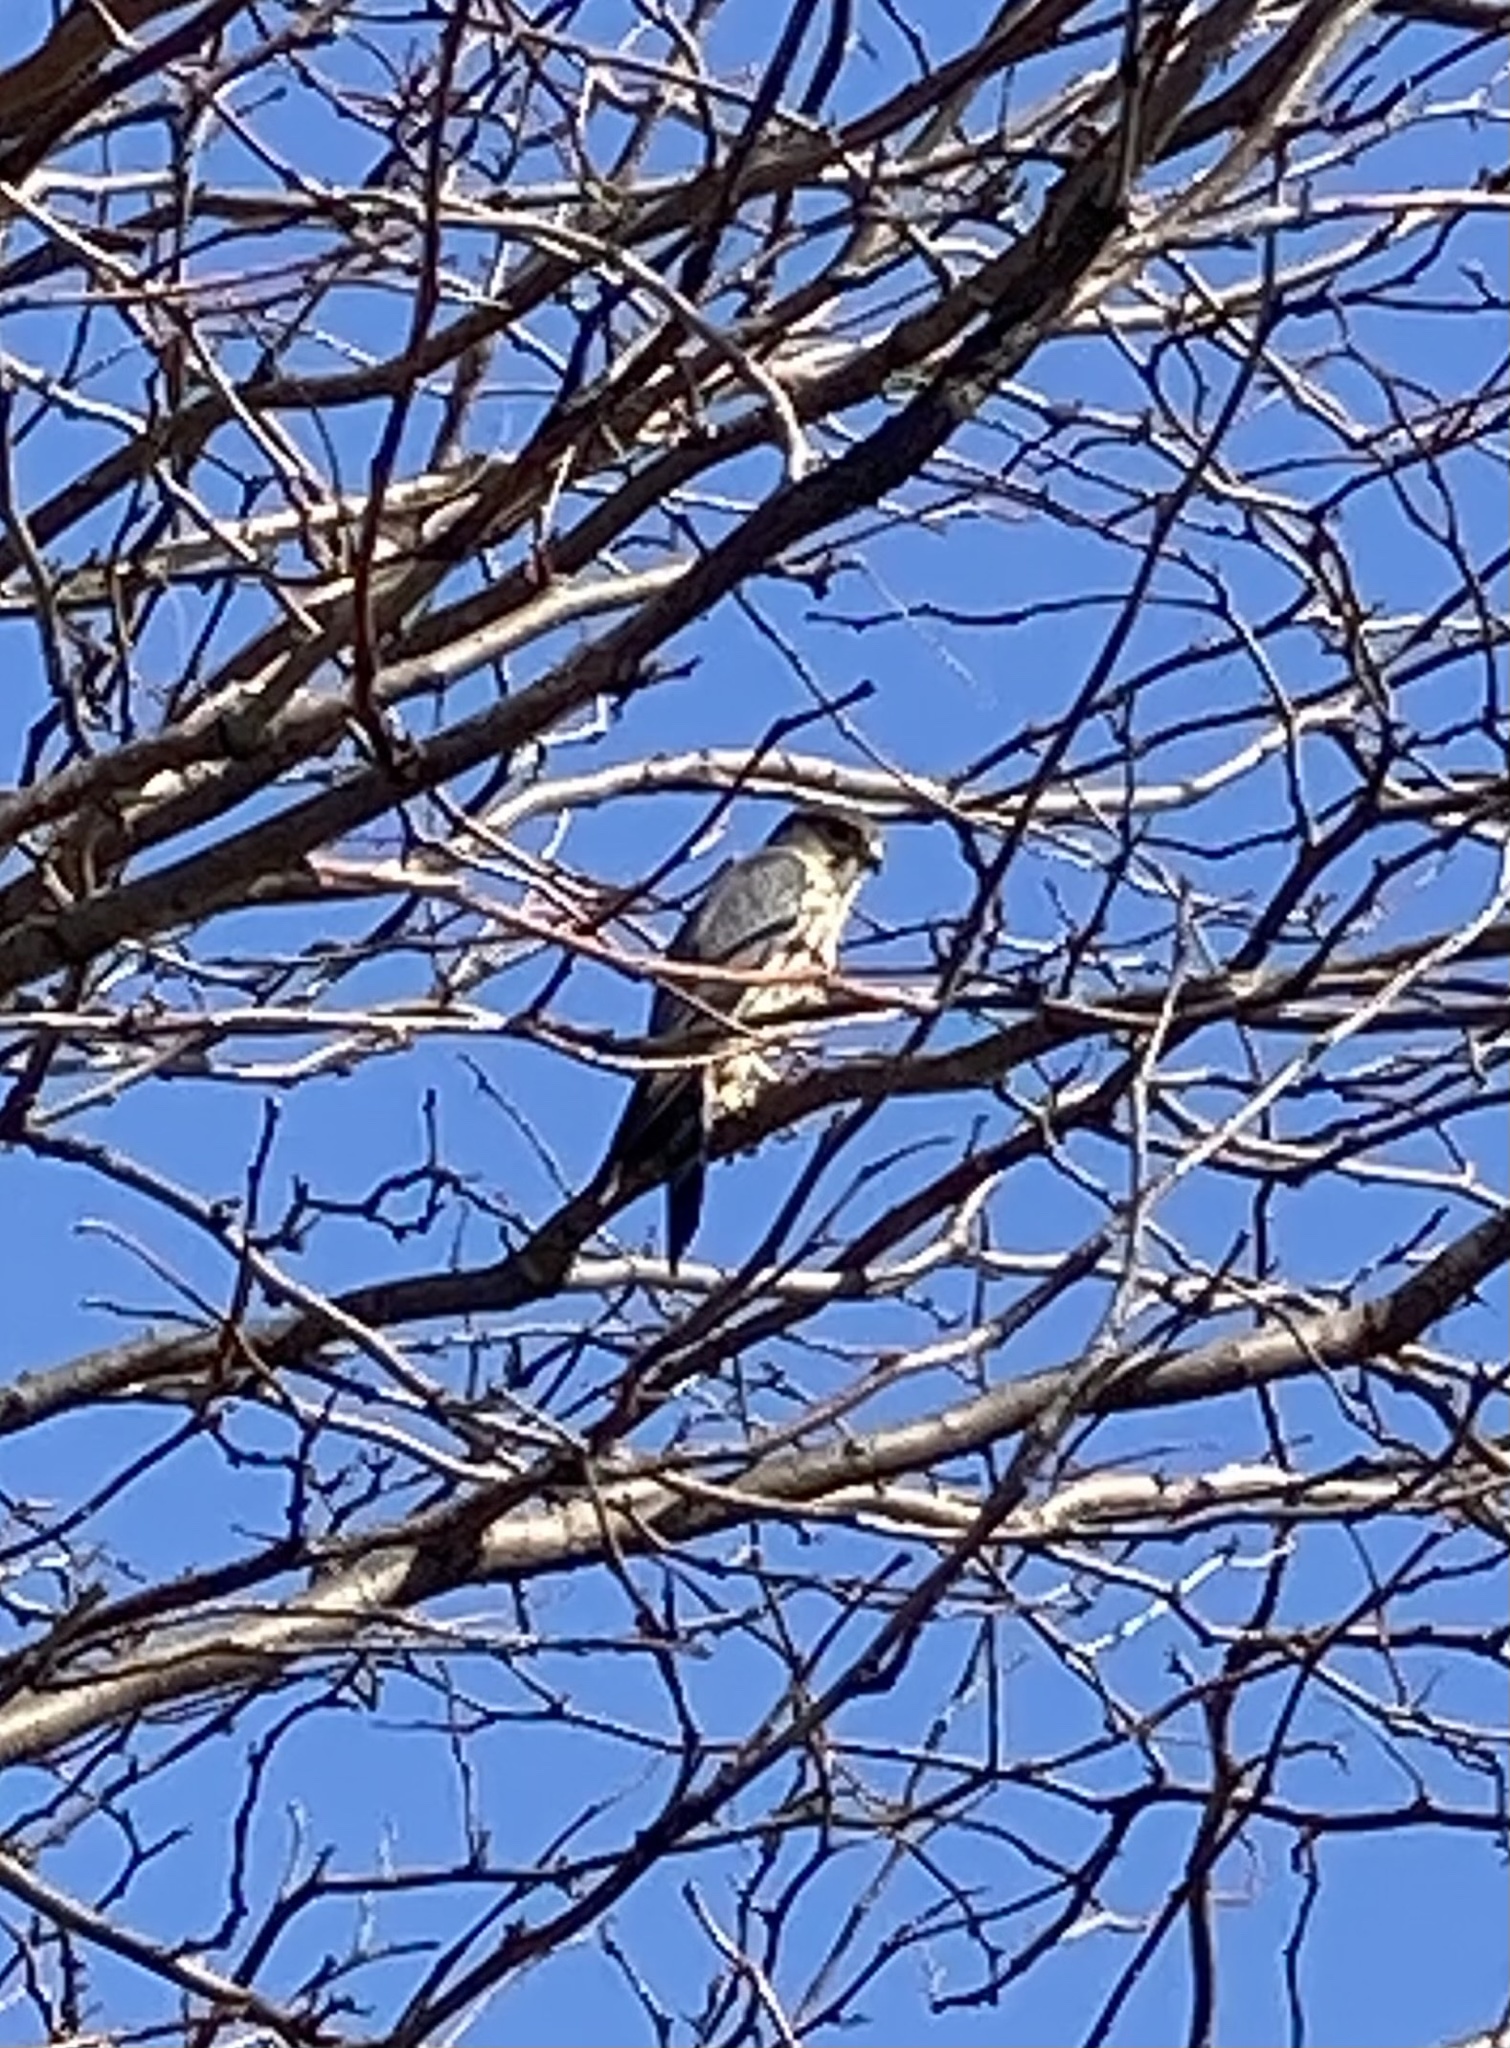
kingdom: Animalia
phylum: Chordata
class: Aves
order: Falconiformes
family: Falconidae
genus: Falco
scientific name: Falco columbarius
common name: Merlin
